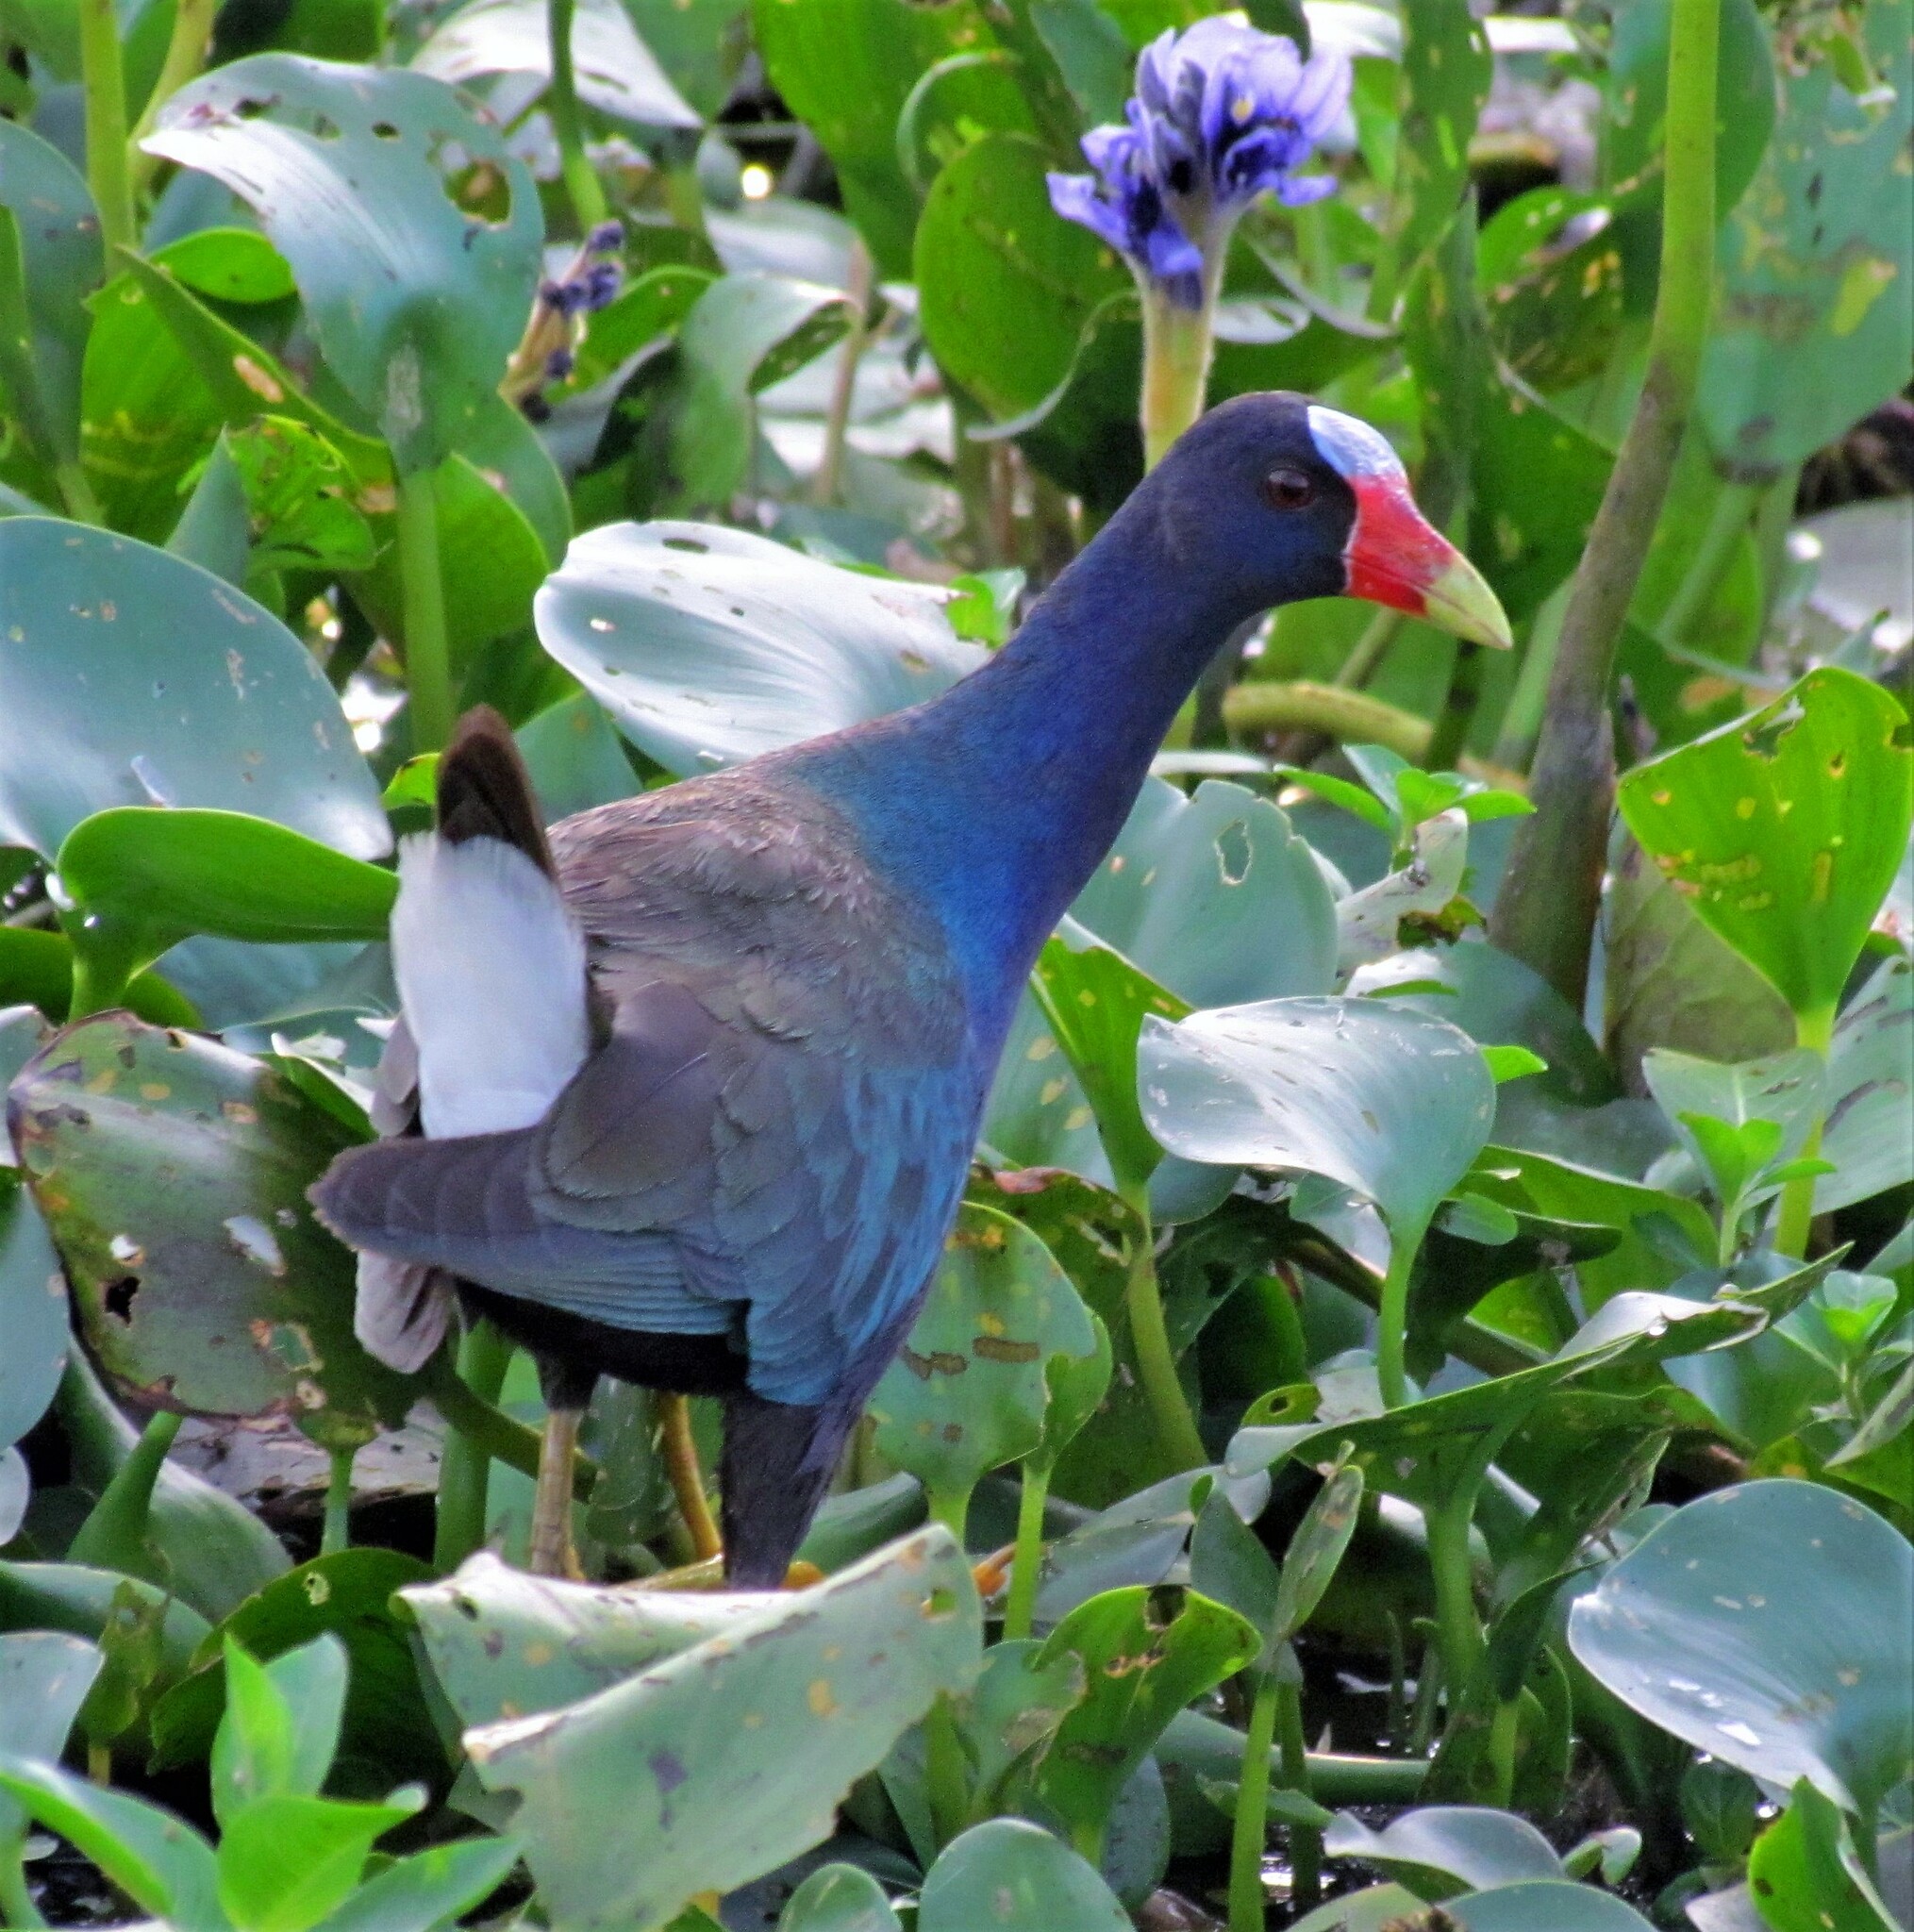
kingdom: Animalia
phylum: Chordata
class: Aves
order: Gruiformes
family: Rallidae
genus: Porphyrio
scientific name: Porphyrio martinica
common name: Purple gallinule
